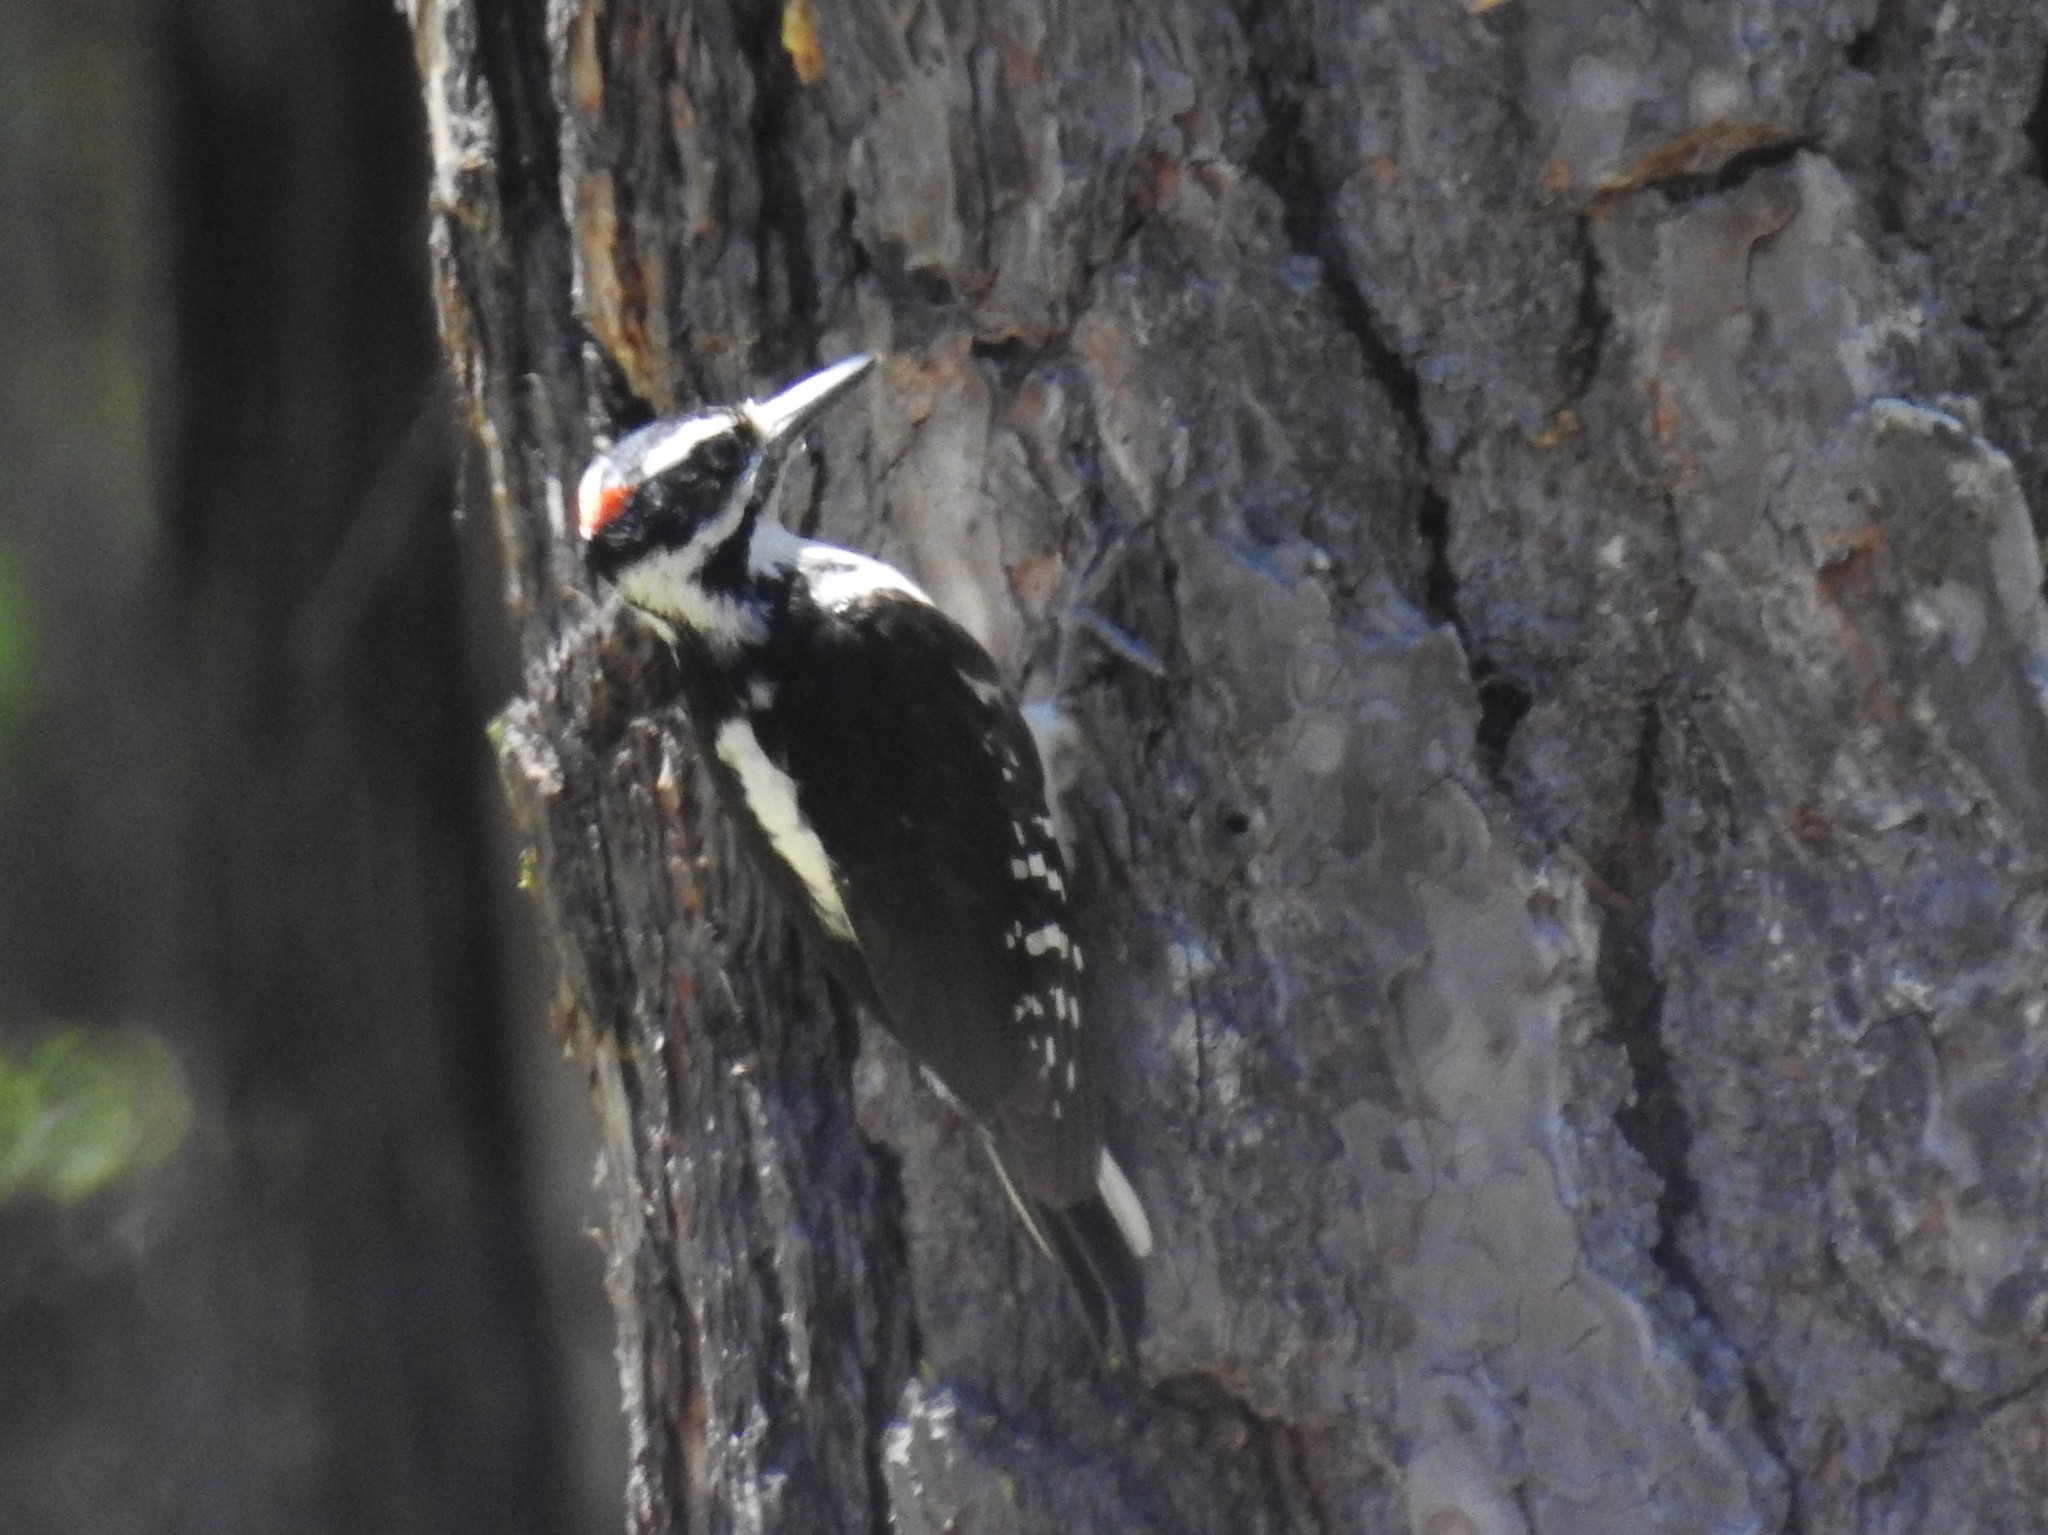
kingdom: Animalia
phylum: Chordata
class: Aves
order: Piciformes
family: Picidae
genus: Leuconotopicus
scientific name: Leuconotopicus villosus
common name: Hairy woodpecker
